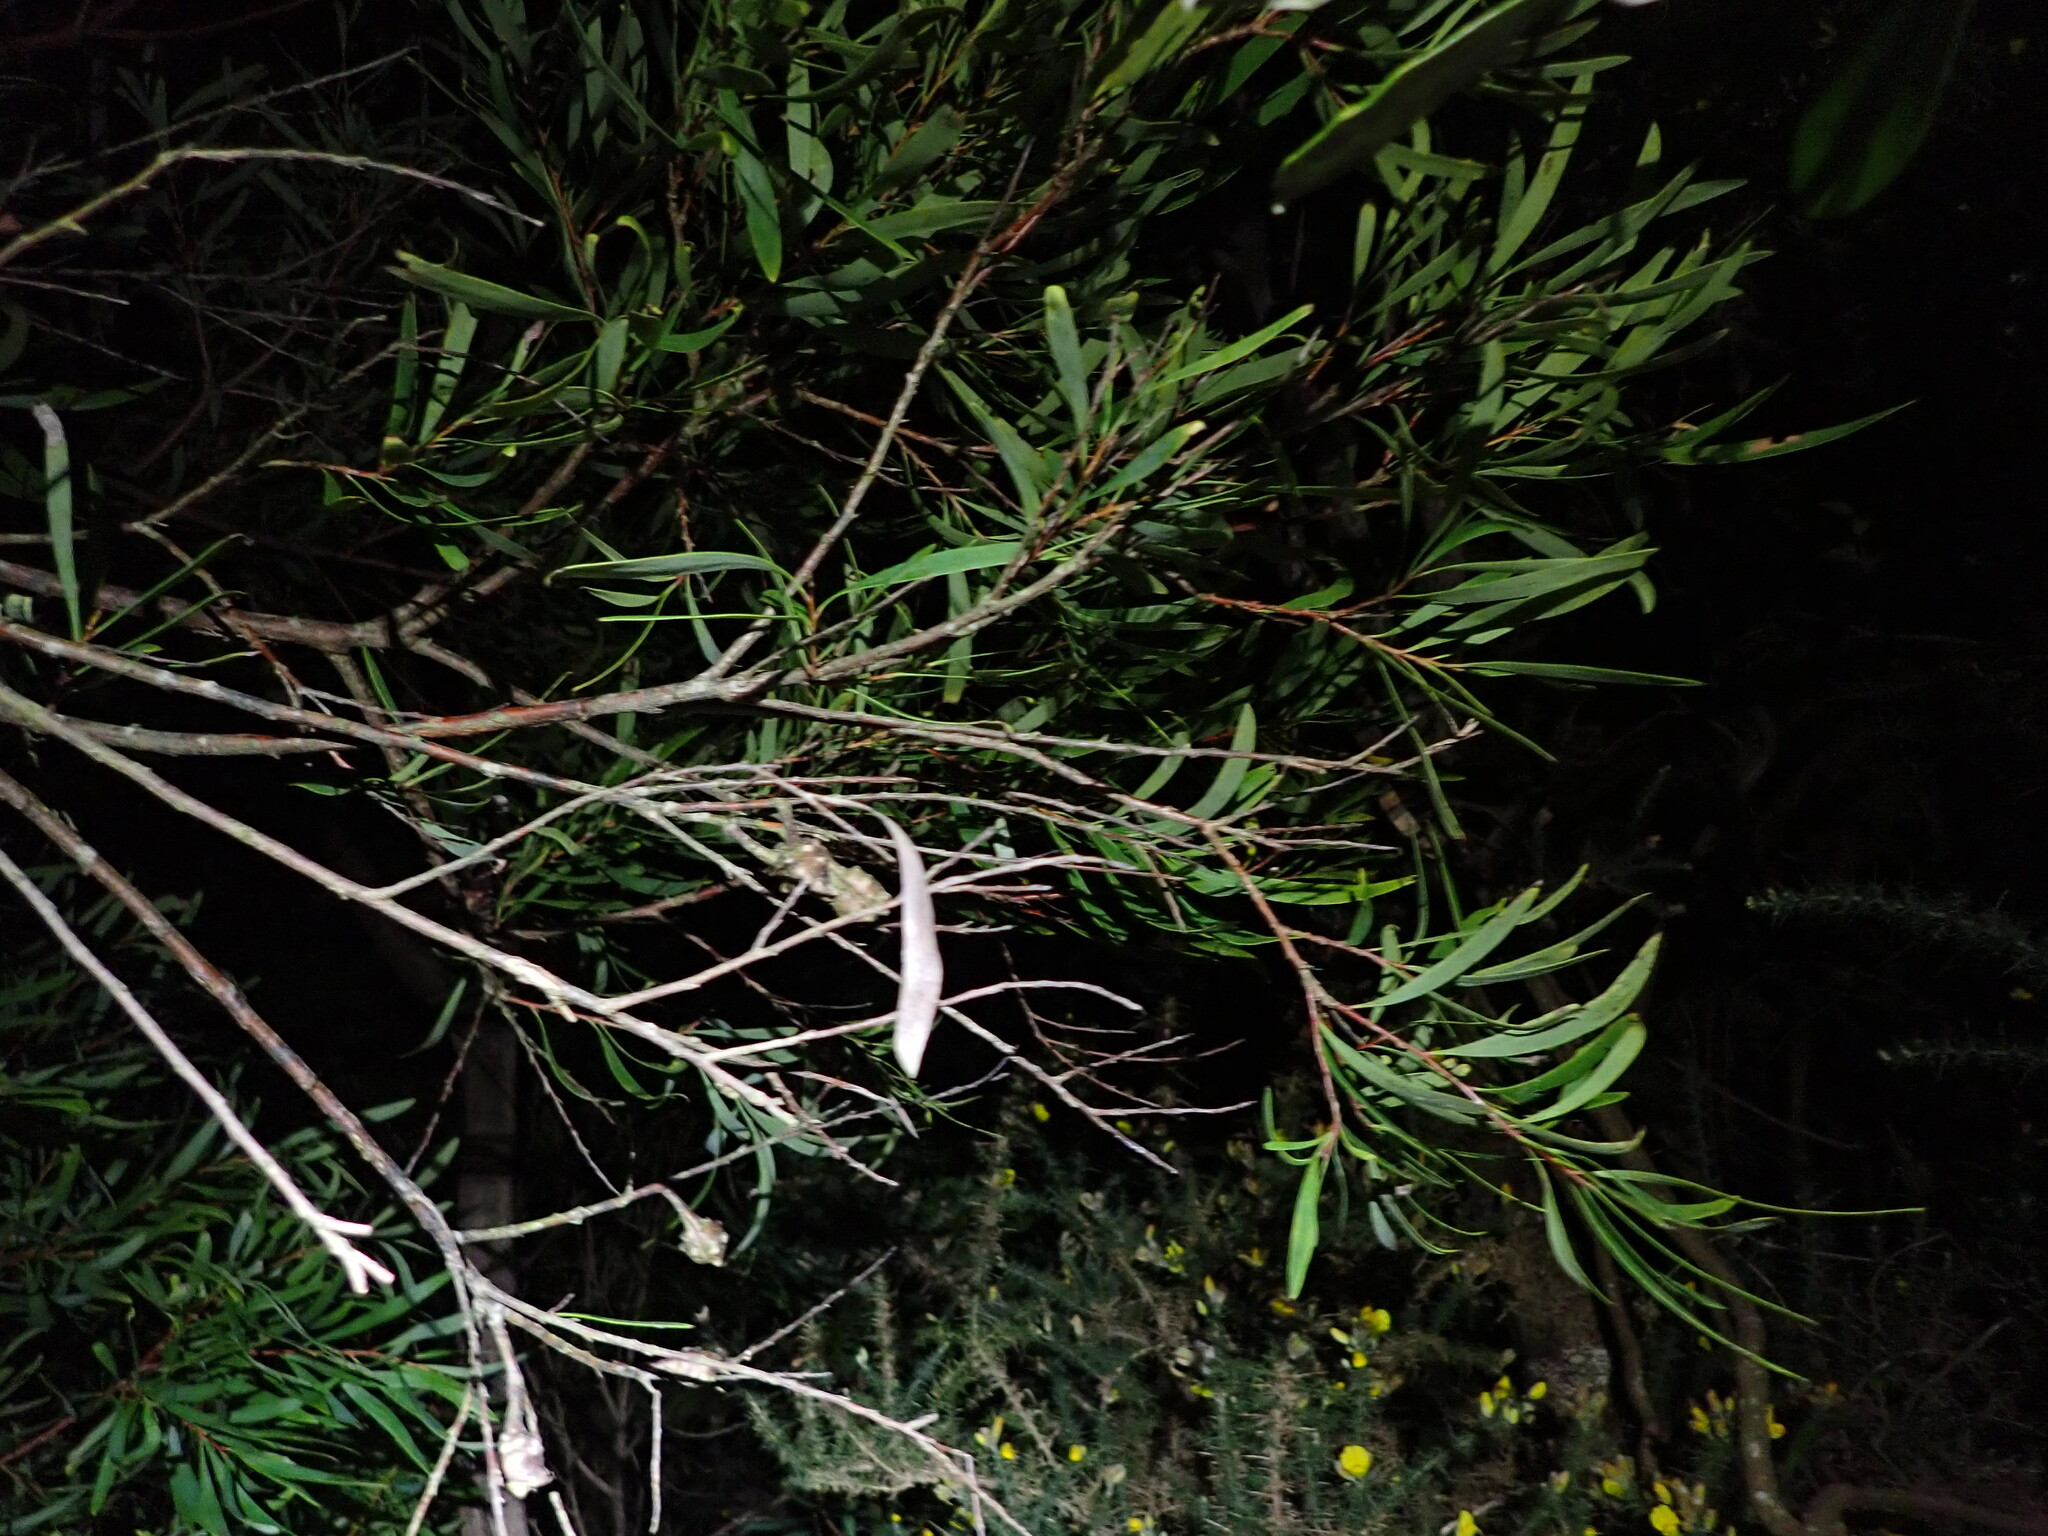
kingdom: Plantae
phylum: Tracheophyta
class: Magnoliopsida
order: Proteales
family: Proteaceae
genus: Hakea
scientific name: Hakea salicifolia
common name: Willow hakea
